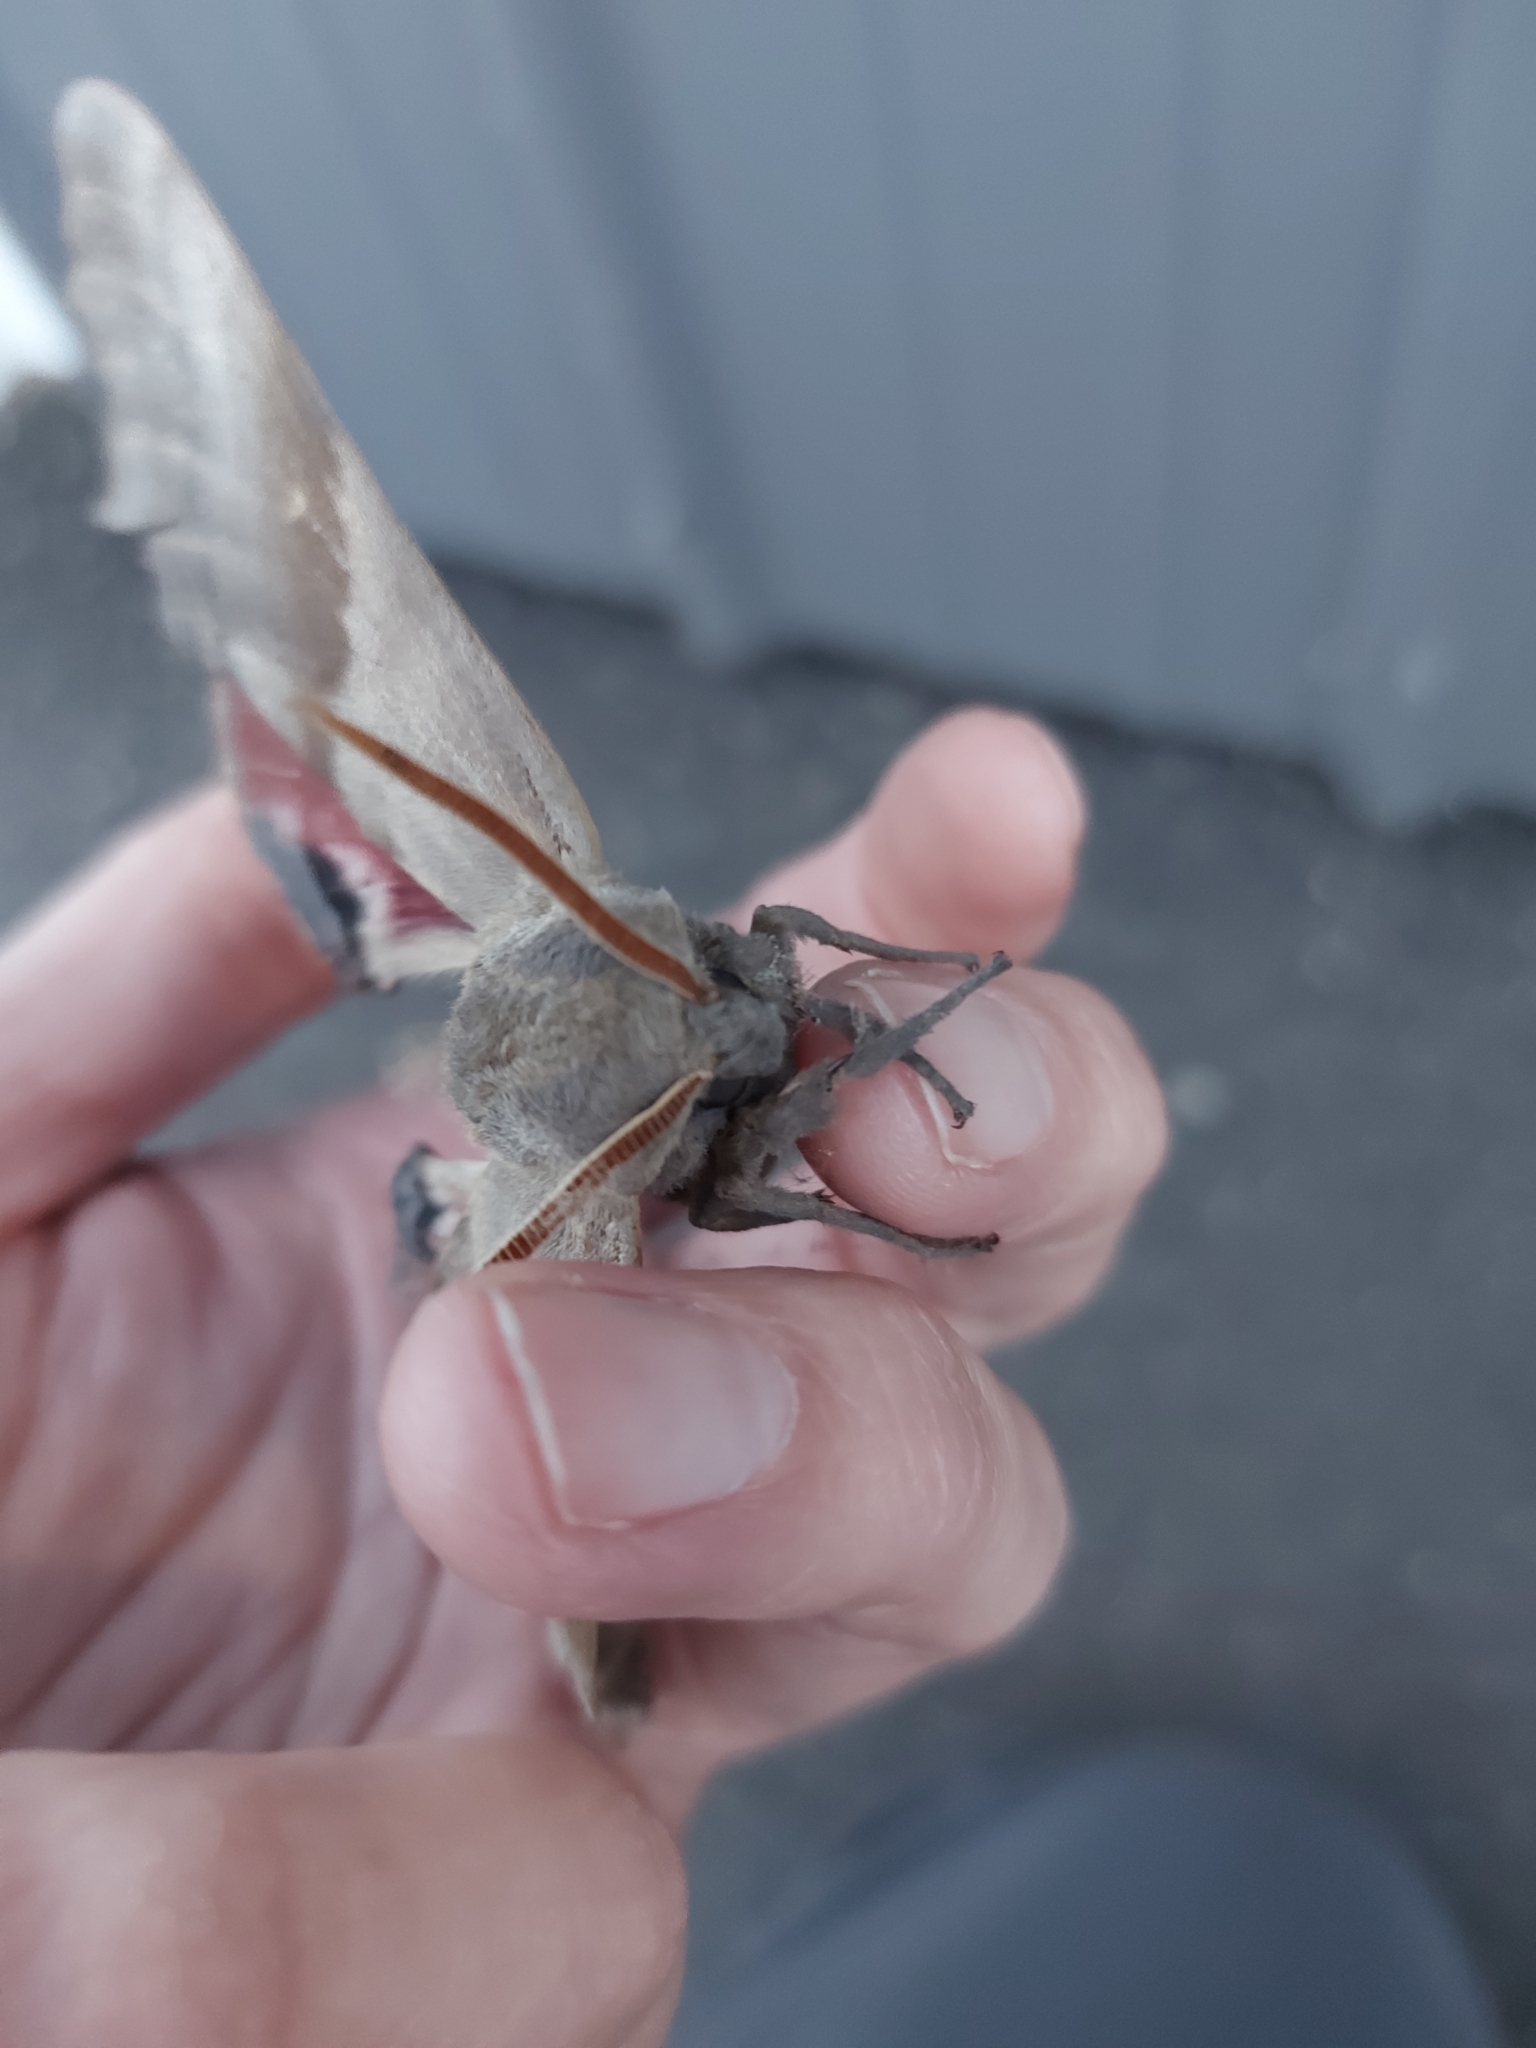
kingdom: Animalia
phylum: Arthropoda
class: Insecta
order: Lepidoptera
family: Sphingidae
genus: Pachysphinx
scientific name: Pachysphinx modesta
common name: Big poplar sphinx
